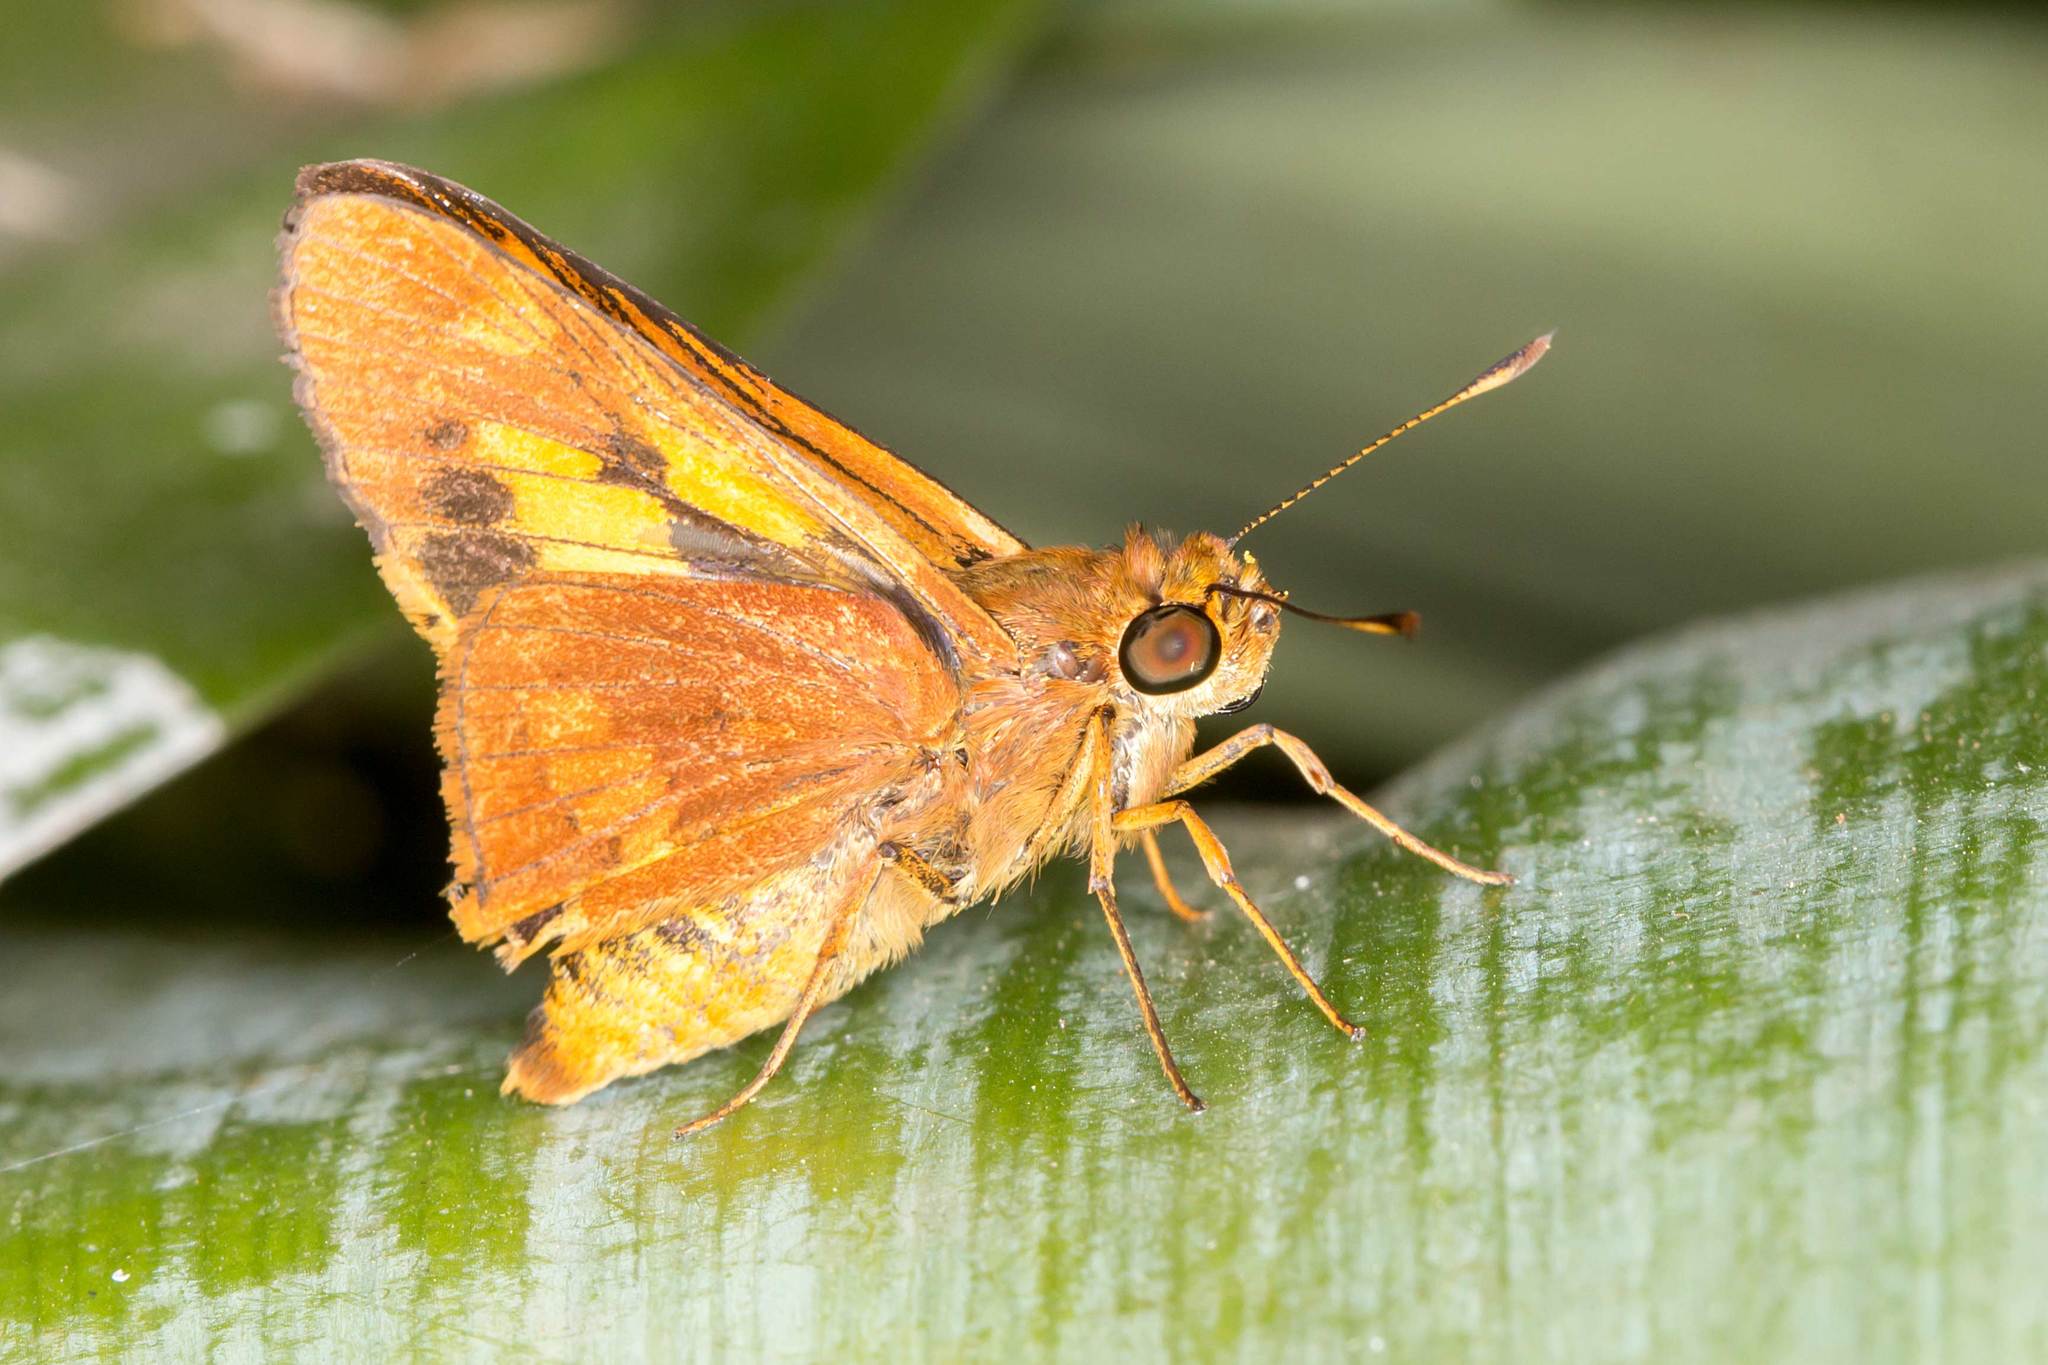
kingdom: Animalia
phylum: Arthropoda
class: Insecta
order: Lepidoptera
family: Hesperiidae
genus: Cephrenes
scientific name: Cephrenes augiades
